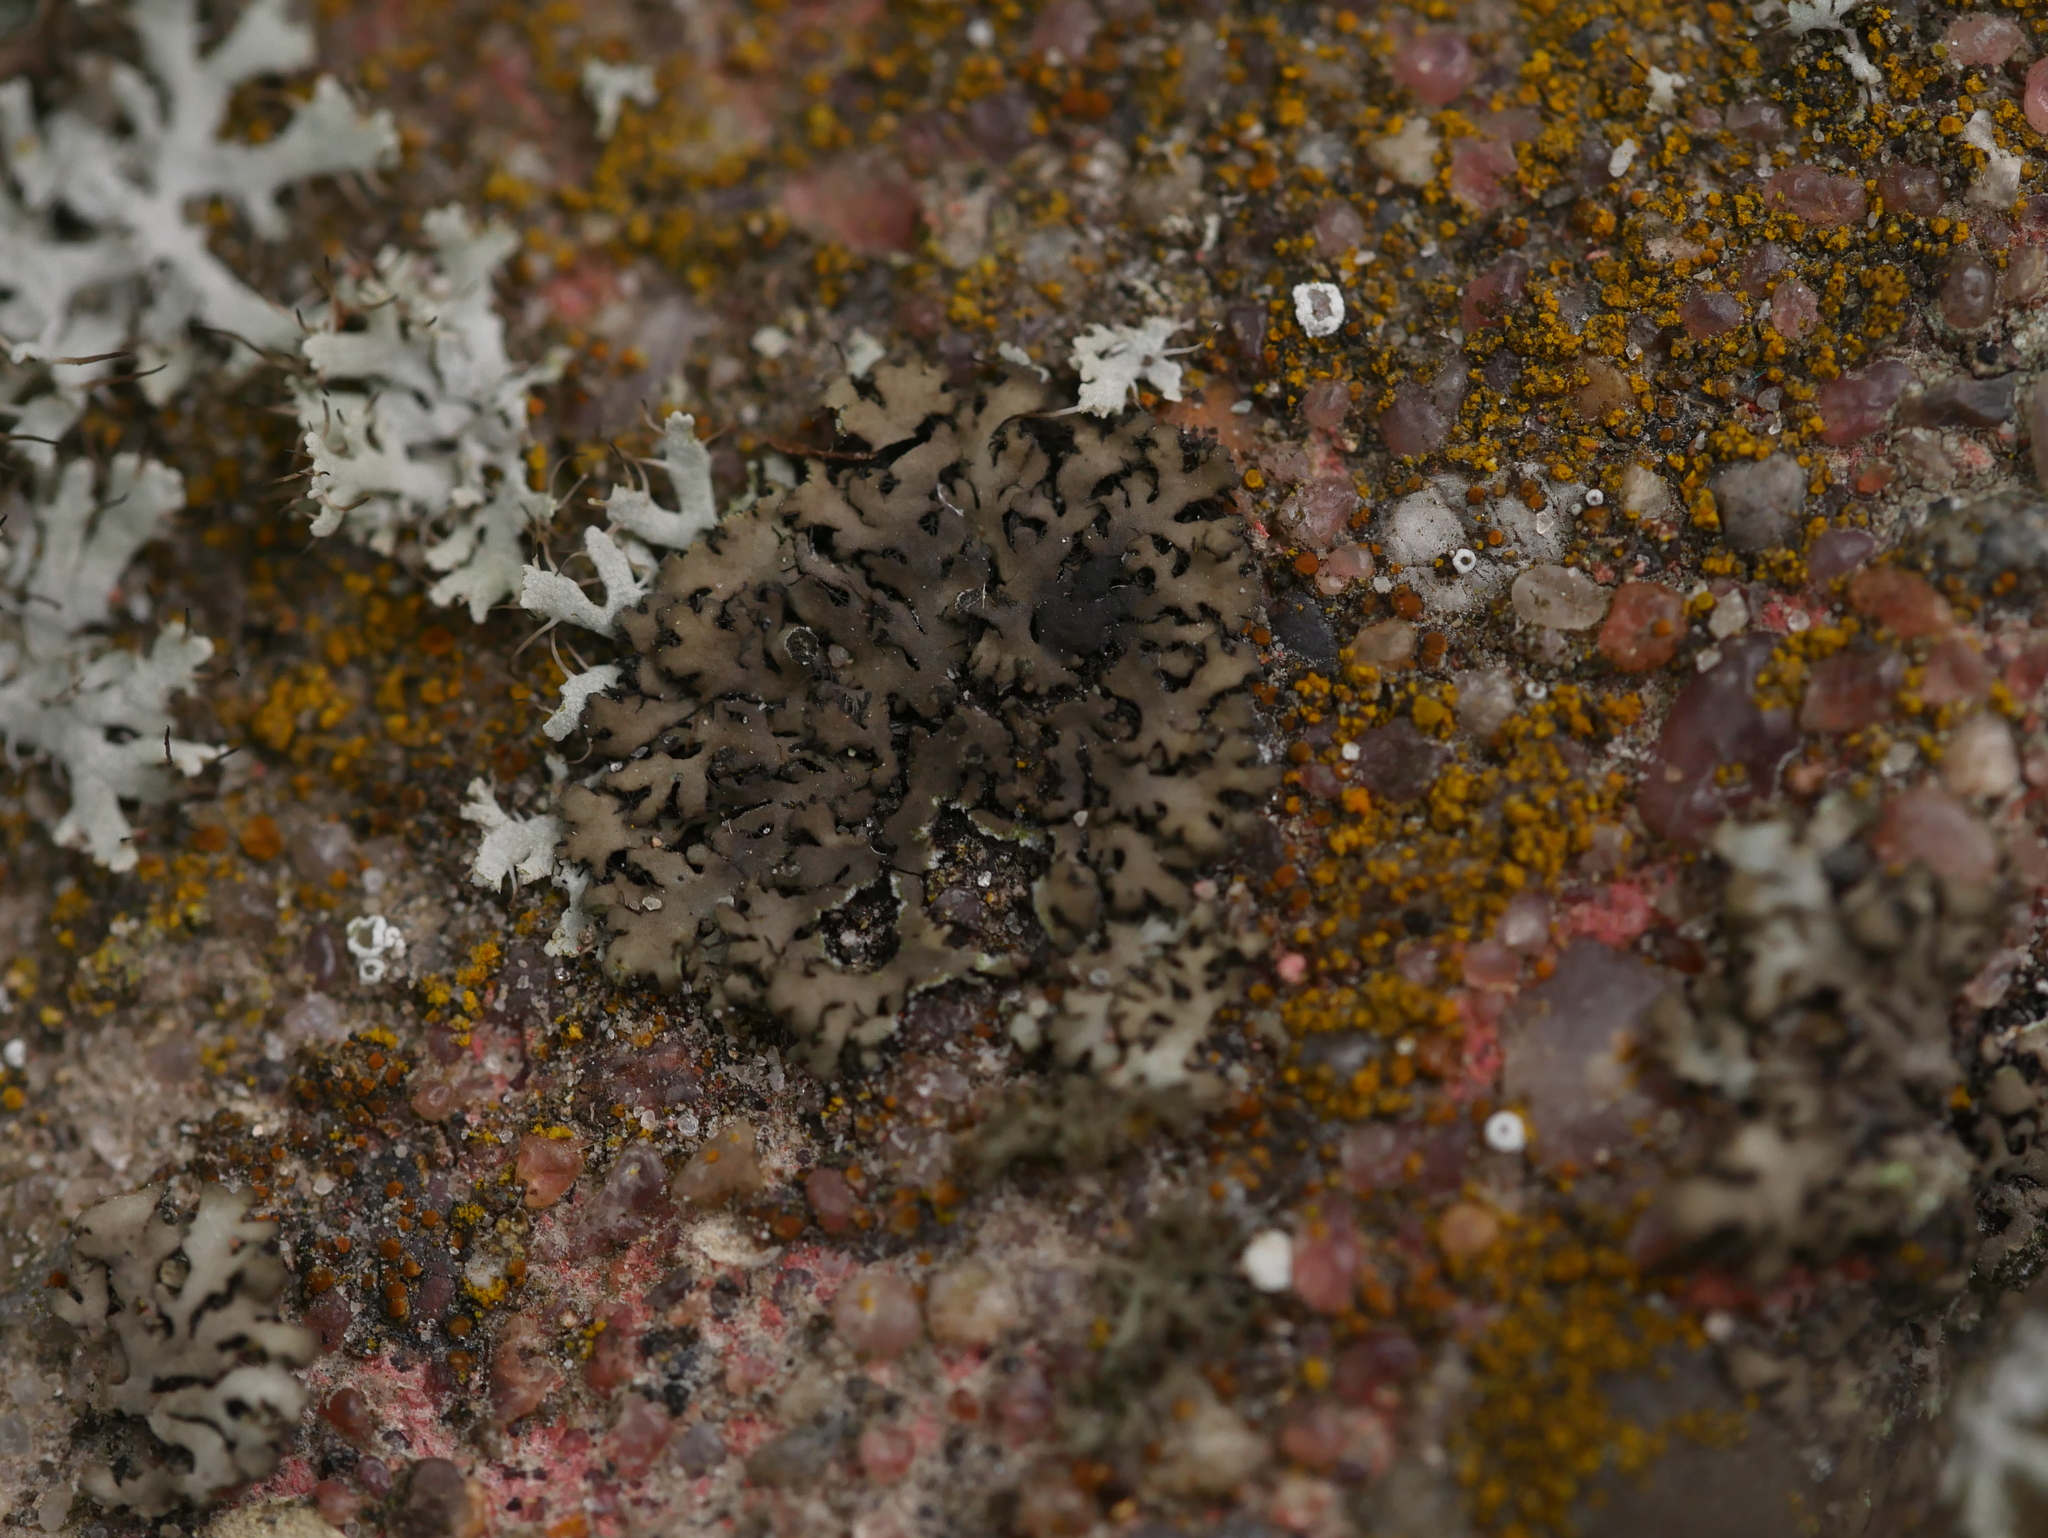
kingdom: Fungi
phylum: Ascomycota
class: Lecanoromycetes
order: Caliciales
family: Physciaceae
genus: Phaeophyscia
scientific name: Phaeophyscia orbicularis
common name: Mealy shadow lichen
